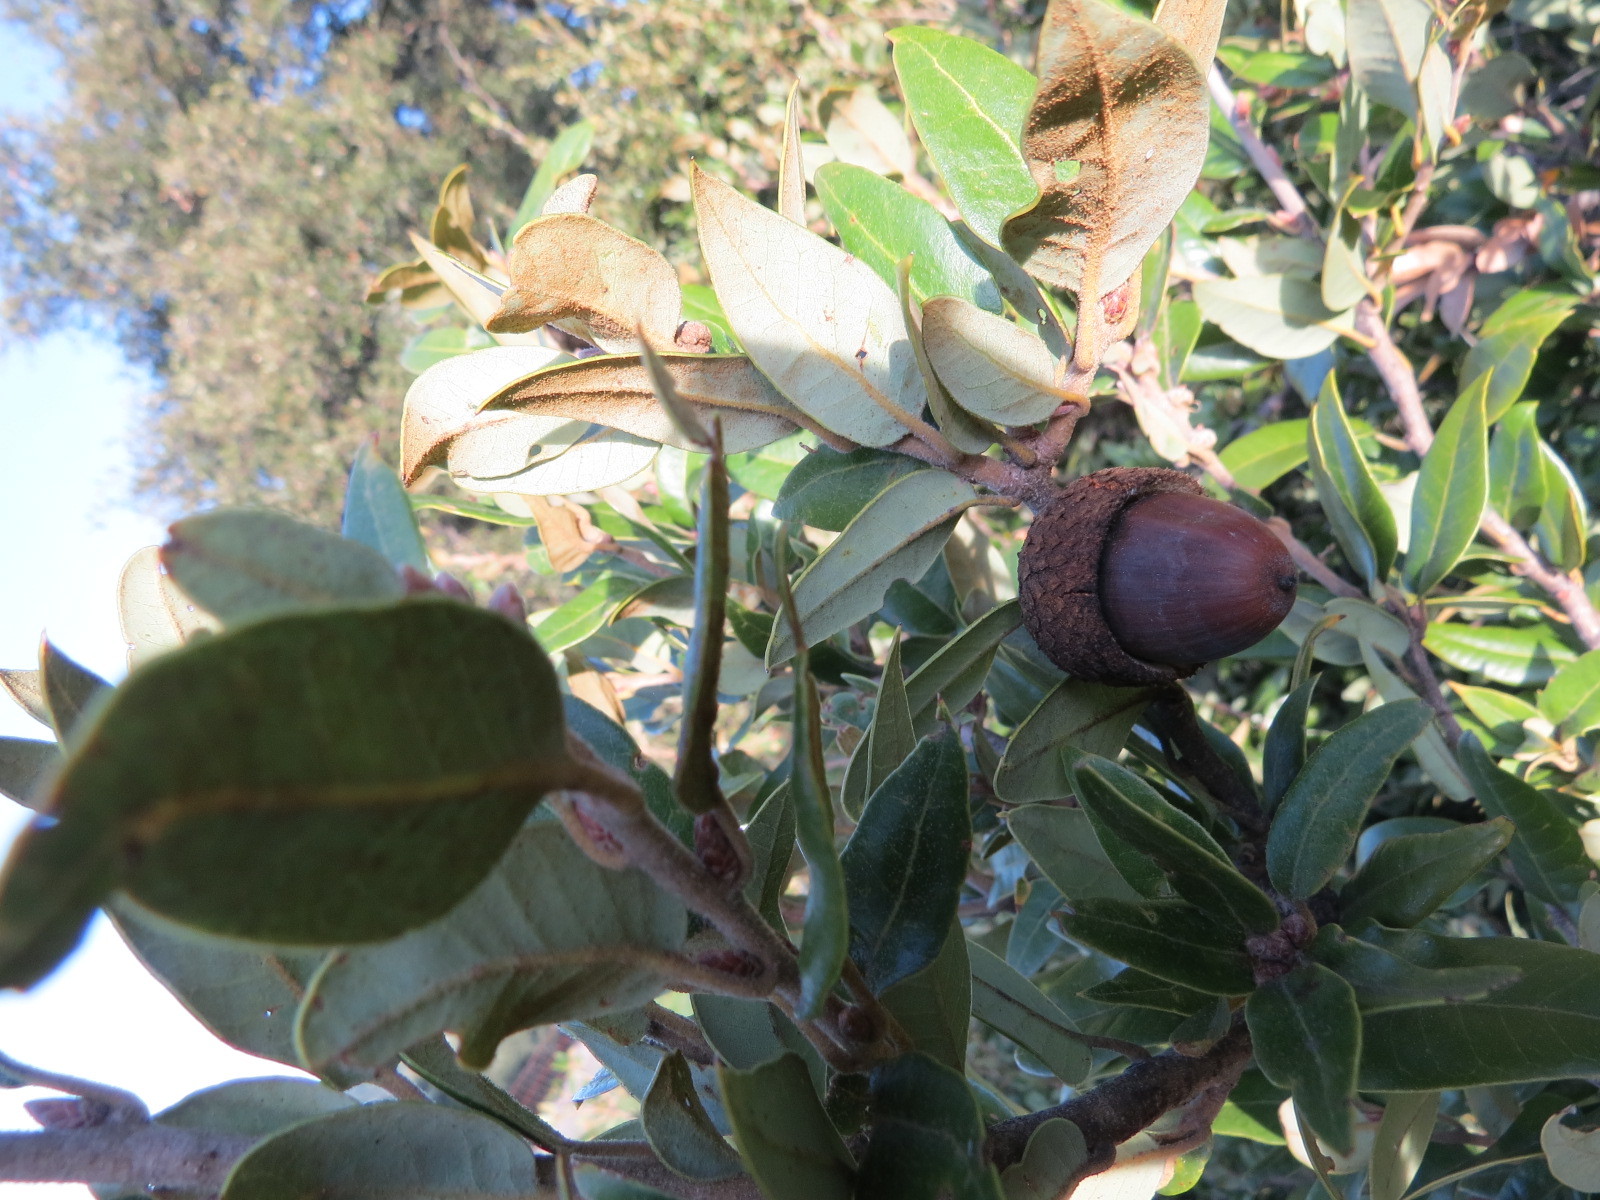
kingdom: Plantae
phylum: Tracheophyta
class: Magnoliopsida
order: Fagales
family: Fagaceae
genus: Quercus
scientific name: Quercus chrysolepis
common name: Canyon live oak
